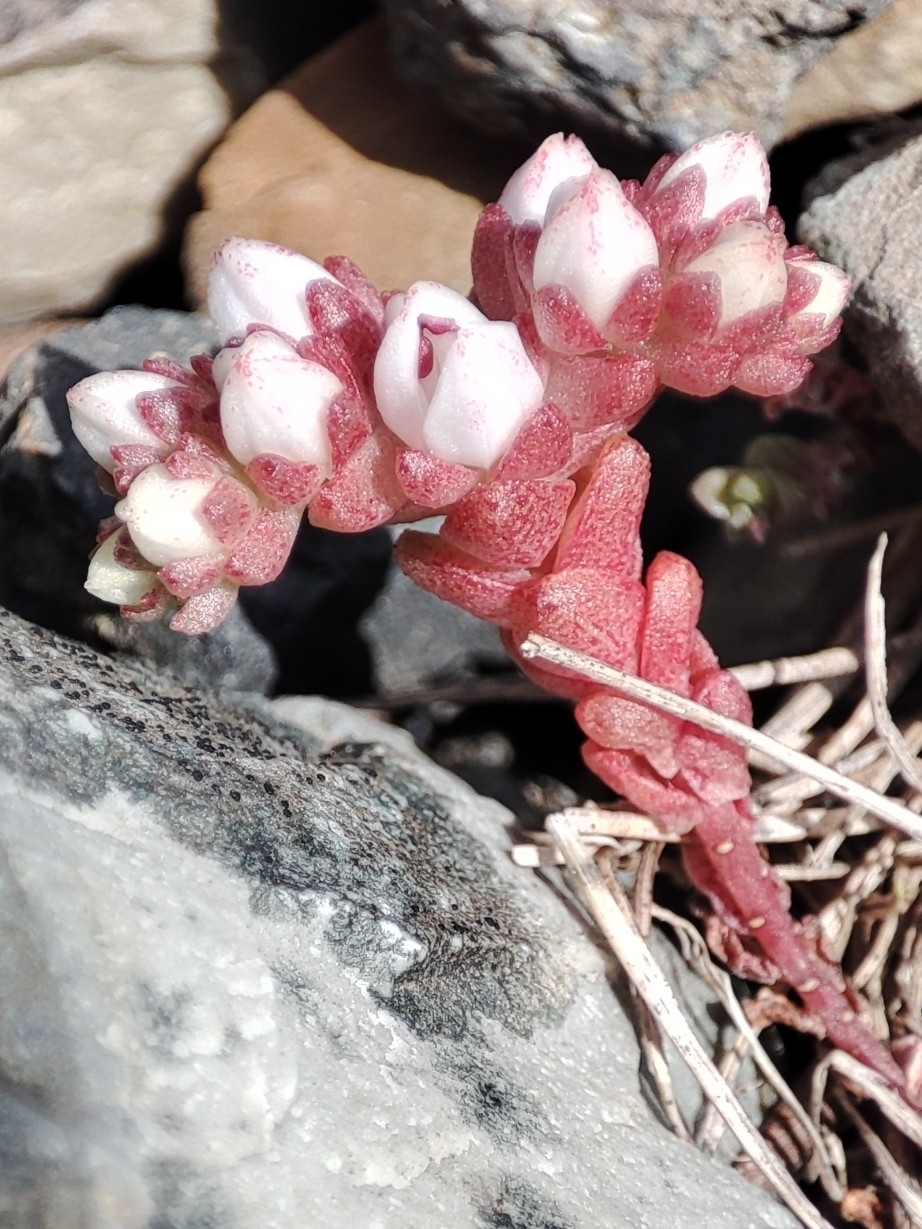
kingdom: Plantae
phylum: Tracheophyta
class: Magnoliopsida
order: Saxifragales
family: Crassulaceae
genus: Sedum
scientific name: Sedum anglicum
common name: English stonecrop
